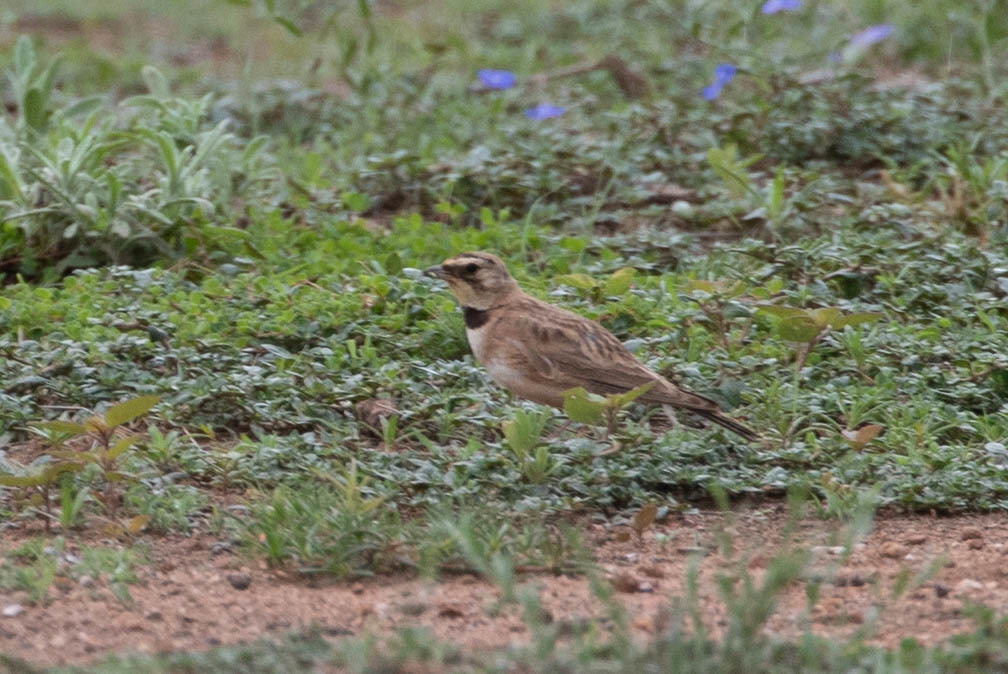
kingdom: Animalia
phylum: Chordata
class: Aves
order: Passeriformes
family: Alaudidae
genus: Eremophila
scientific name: Eremophila alpestris
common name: Horned lark
